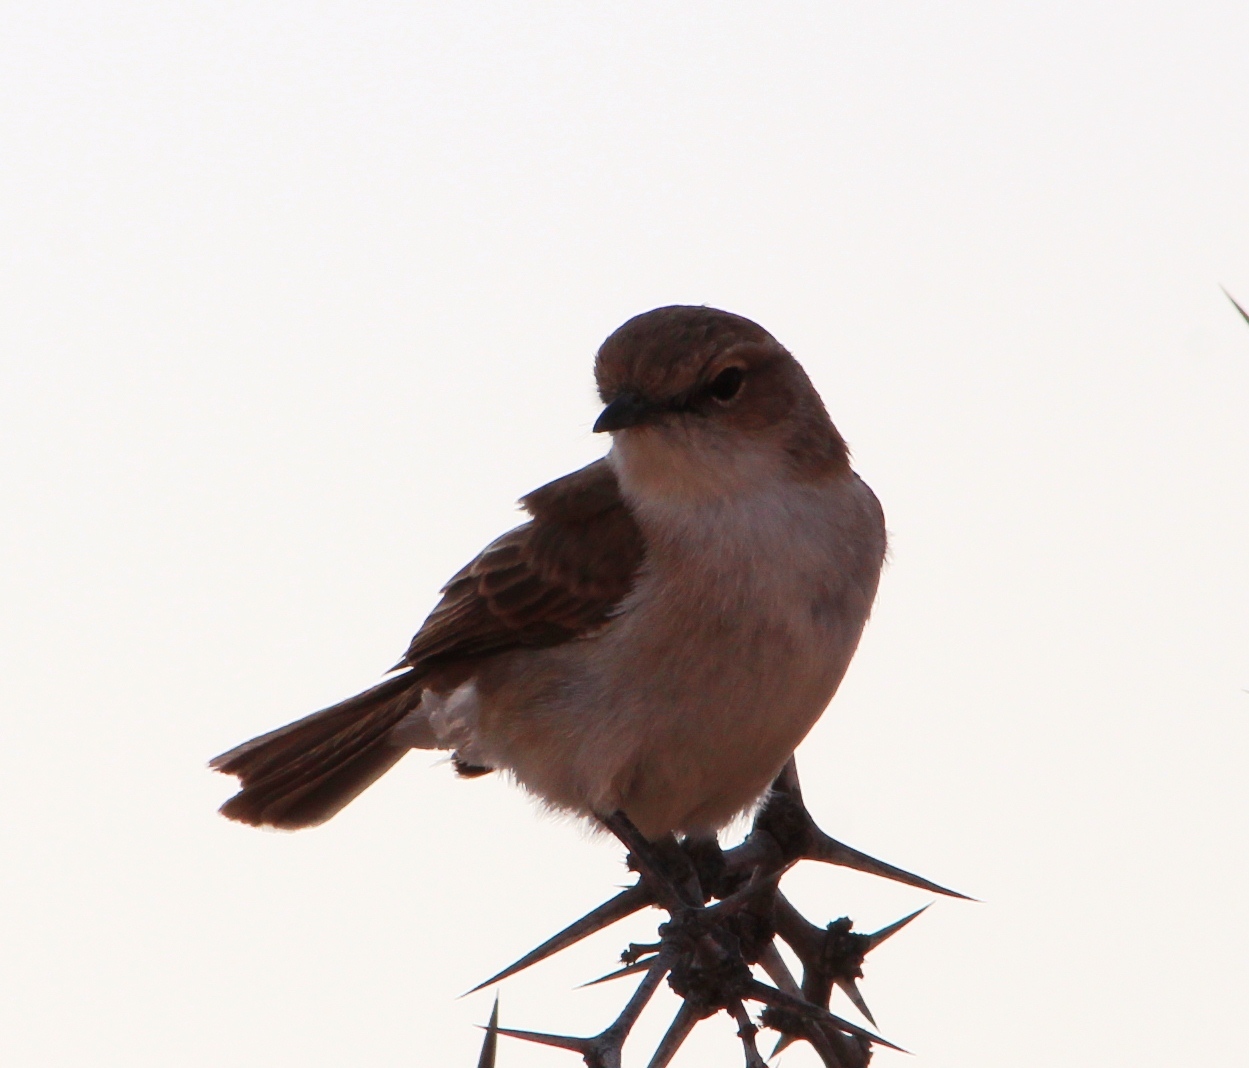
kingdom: Animalia
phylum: Chordata
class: Aves
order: Passeriformes
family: Muscicapidae
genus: Bradornis
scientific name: Bradornis mariquensis
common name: Marico flycatcher
